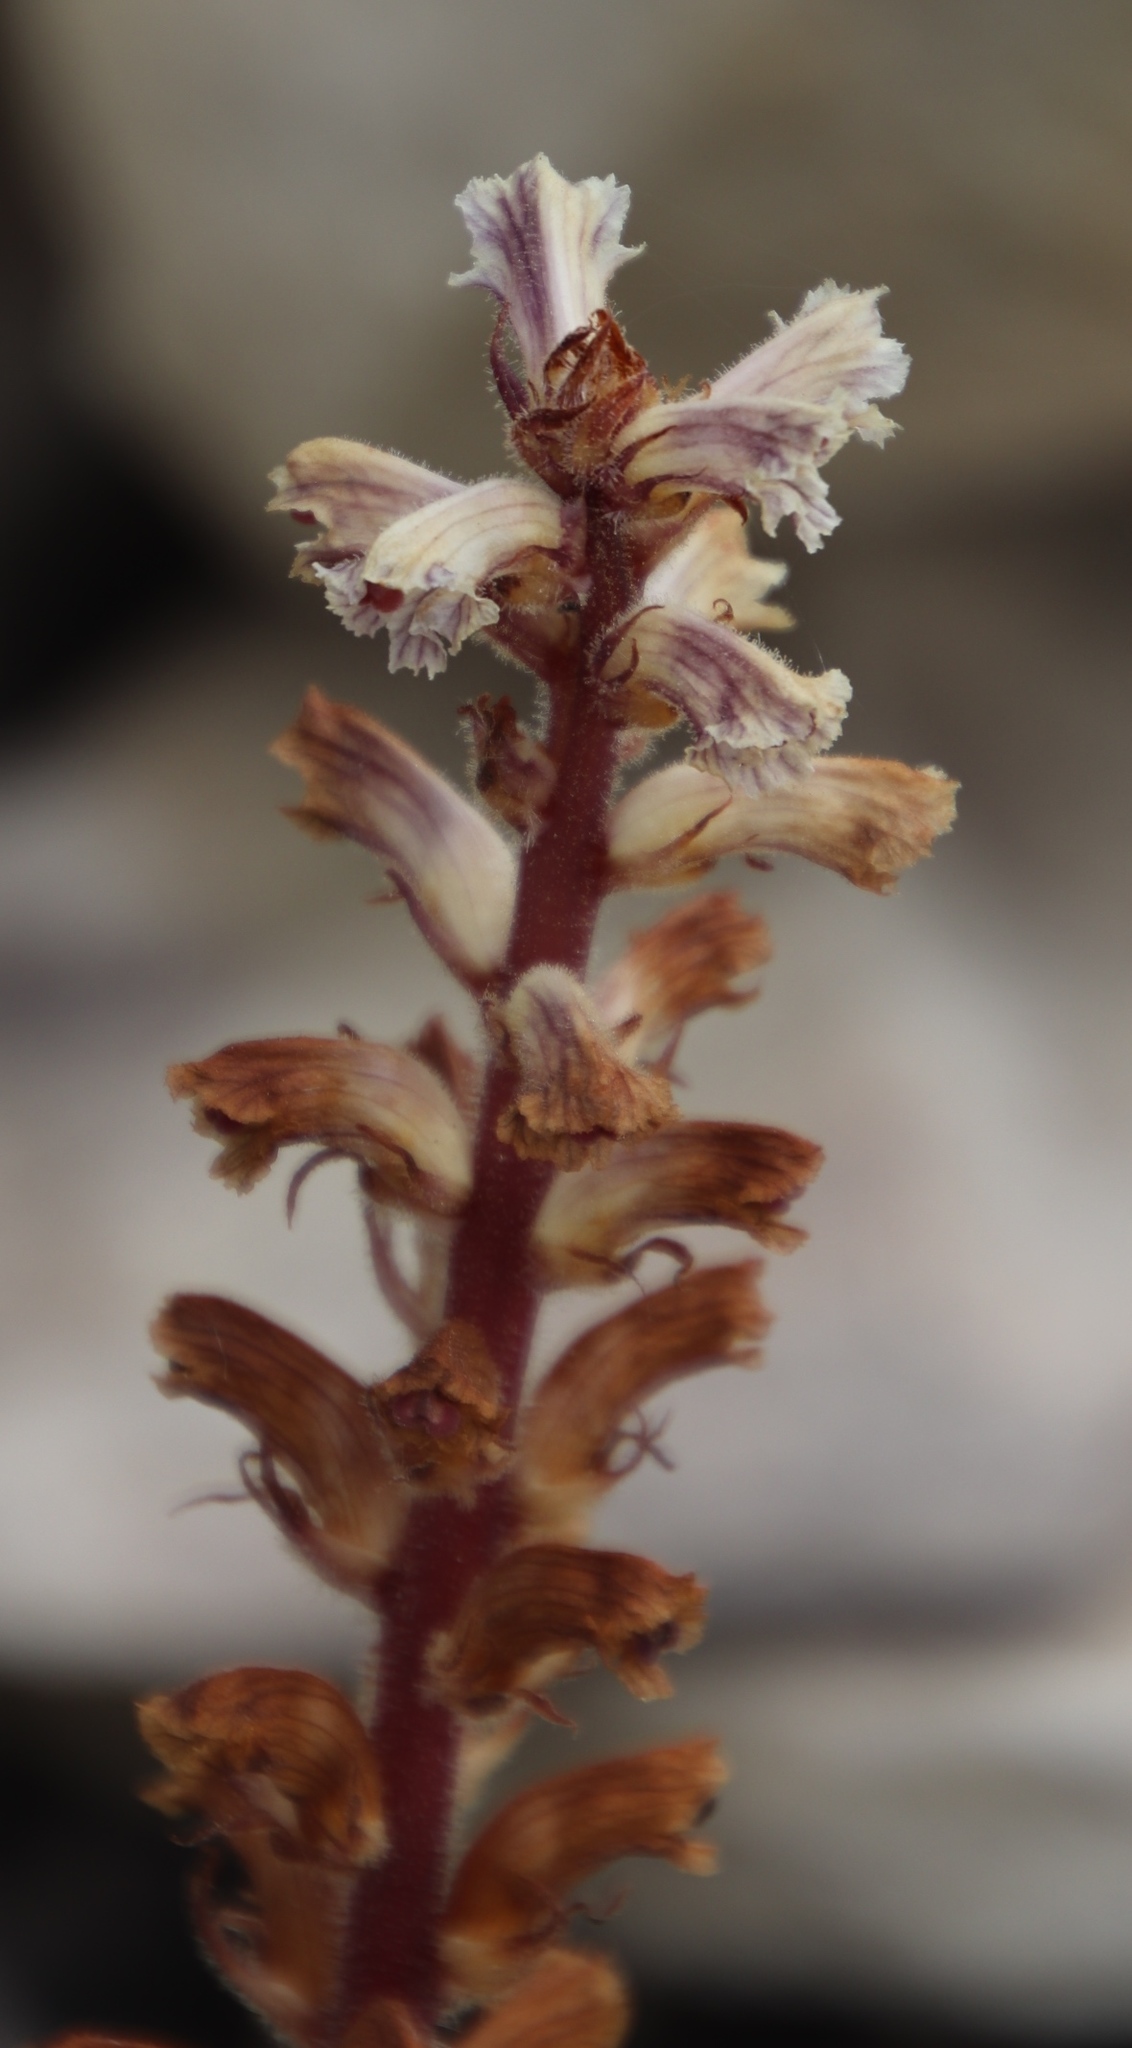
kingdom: Plantae
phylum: Tracheophyta
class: Magnoliopsida
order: Lamiales
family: Orobanchaceae
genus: Orobanche
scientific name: Orobanche minor
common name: Common broomrape
